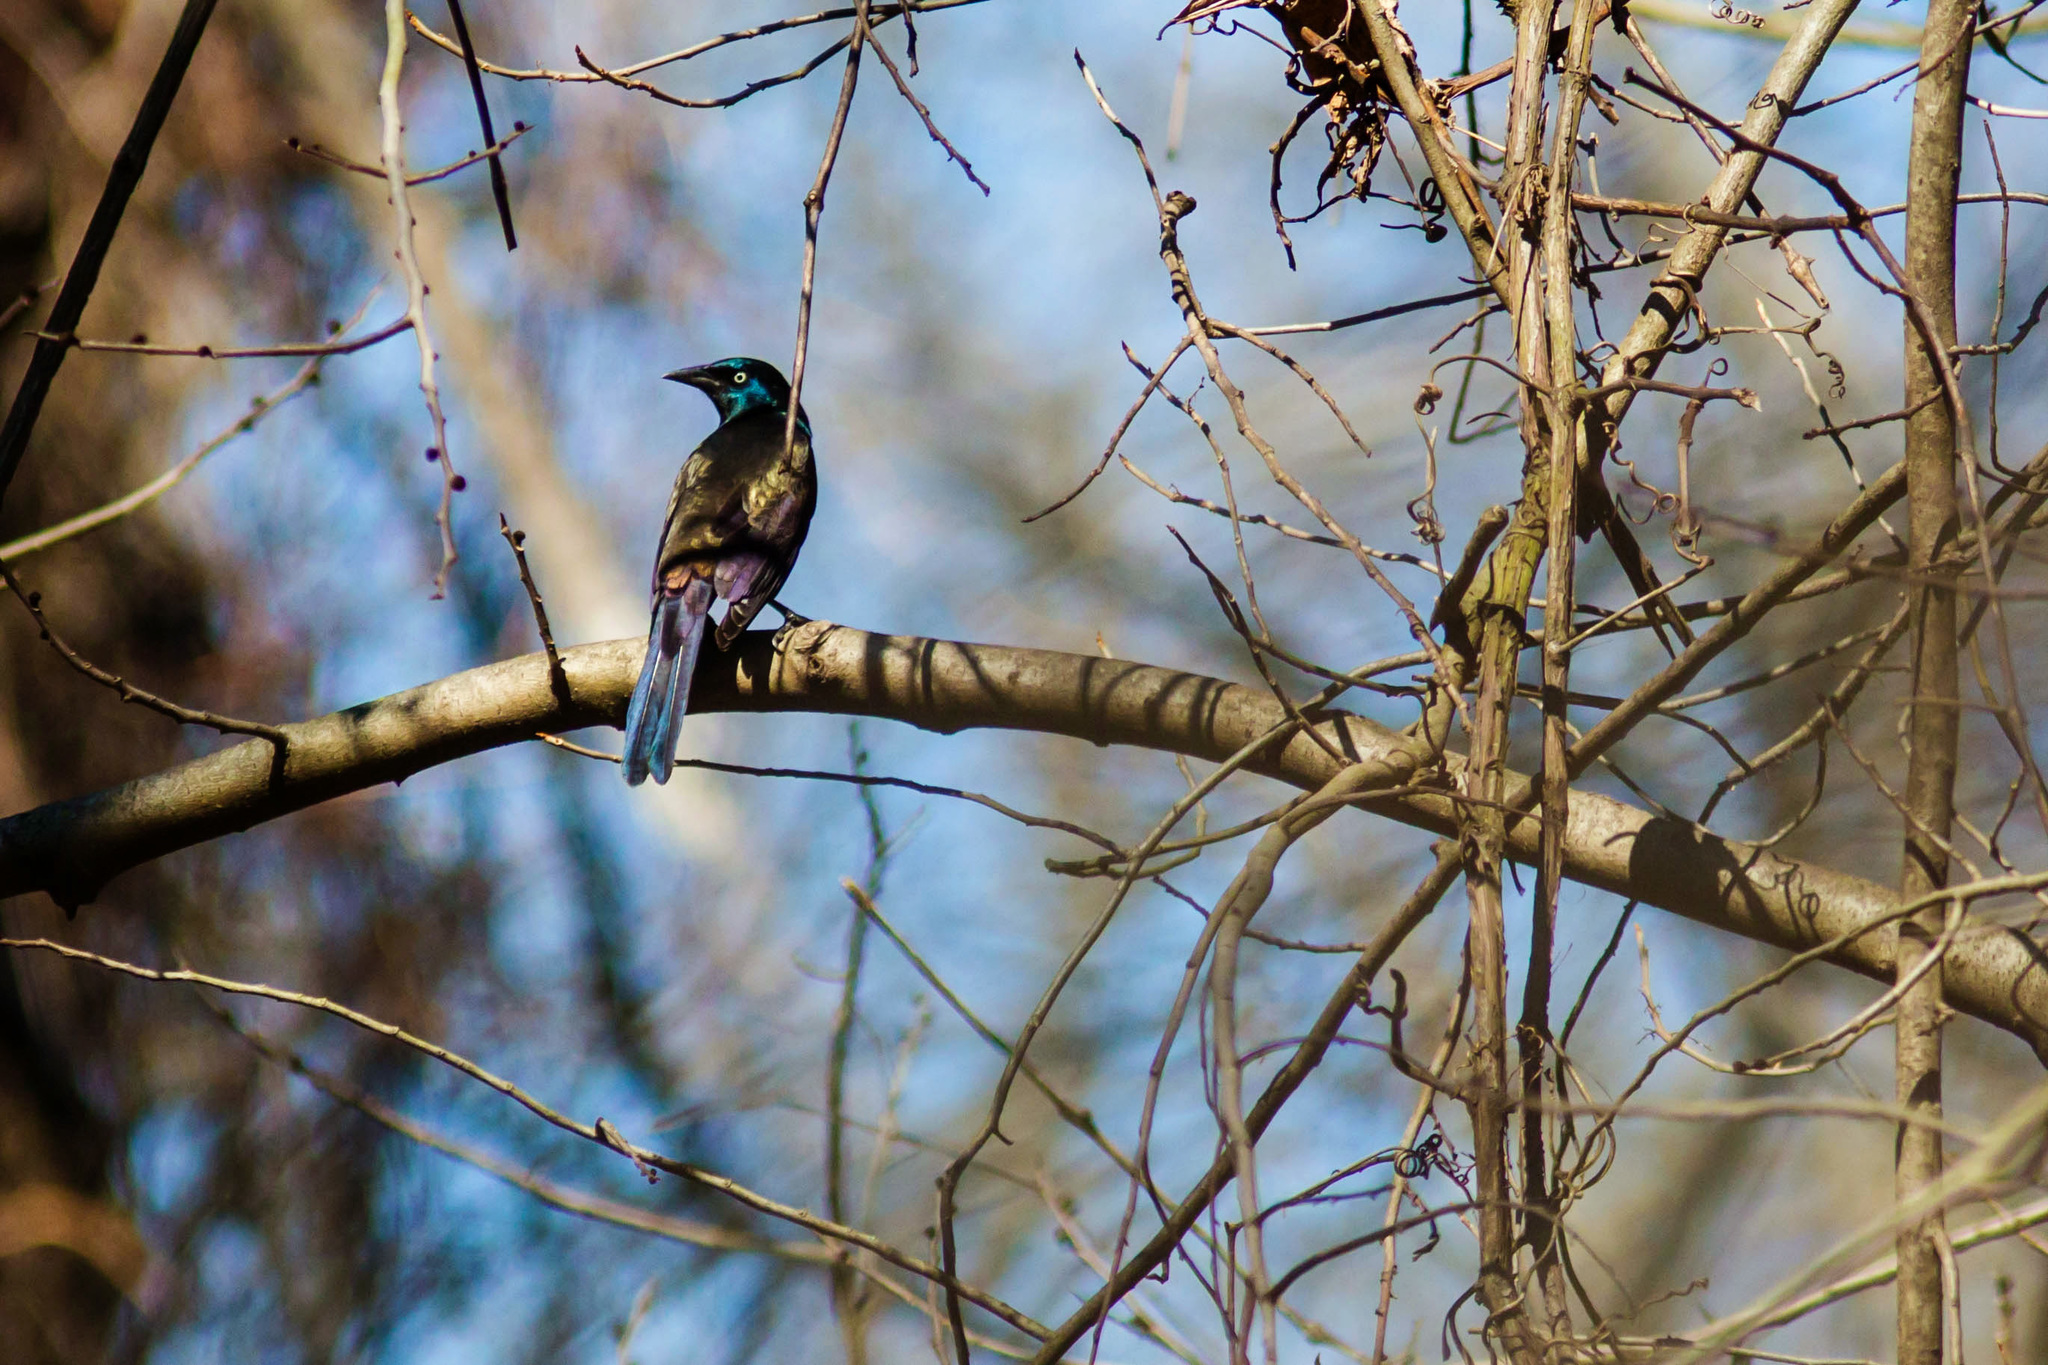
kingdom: Animalia
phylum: Chordata
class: Aves
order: Passeriformes
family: Icteridae
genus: Quiscalus
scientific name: Quiscalus quiscula
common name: Common grackle
